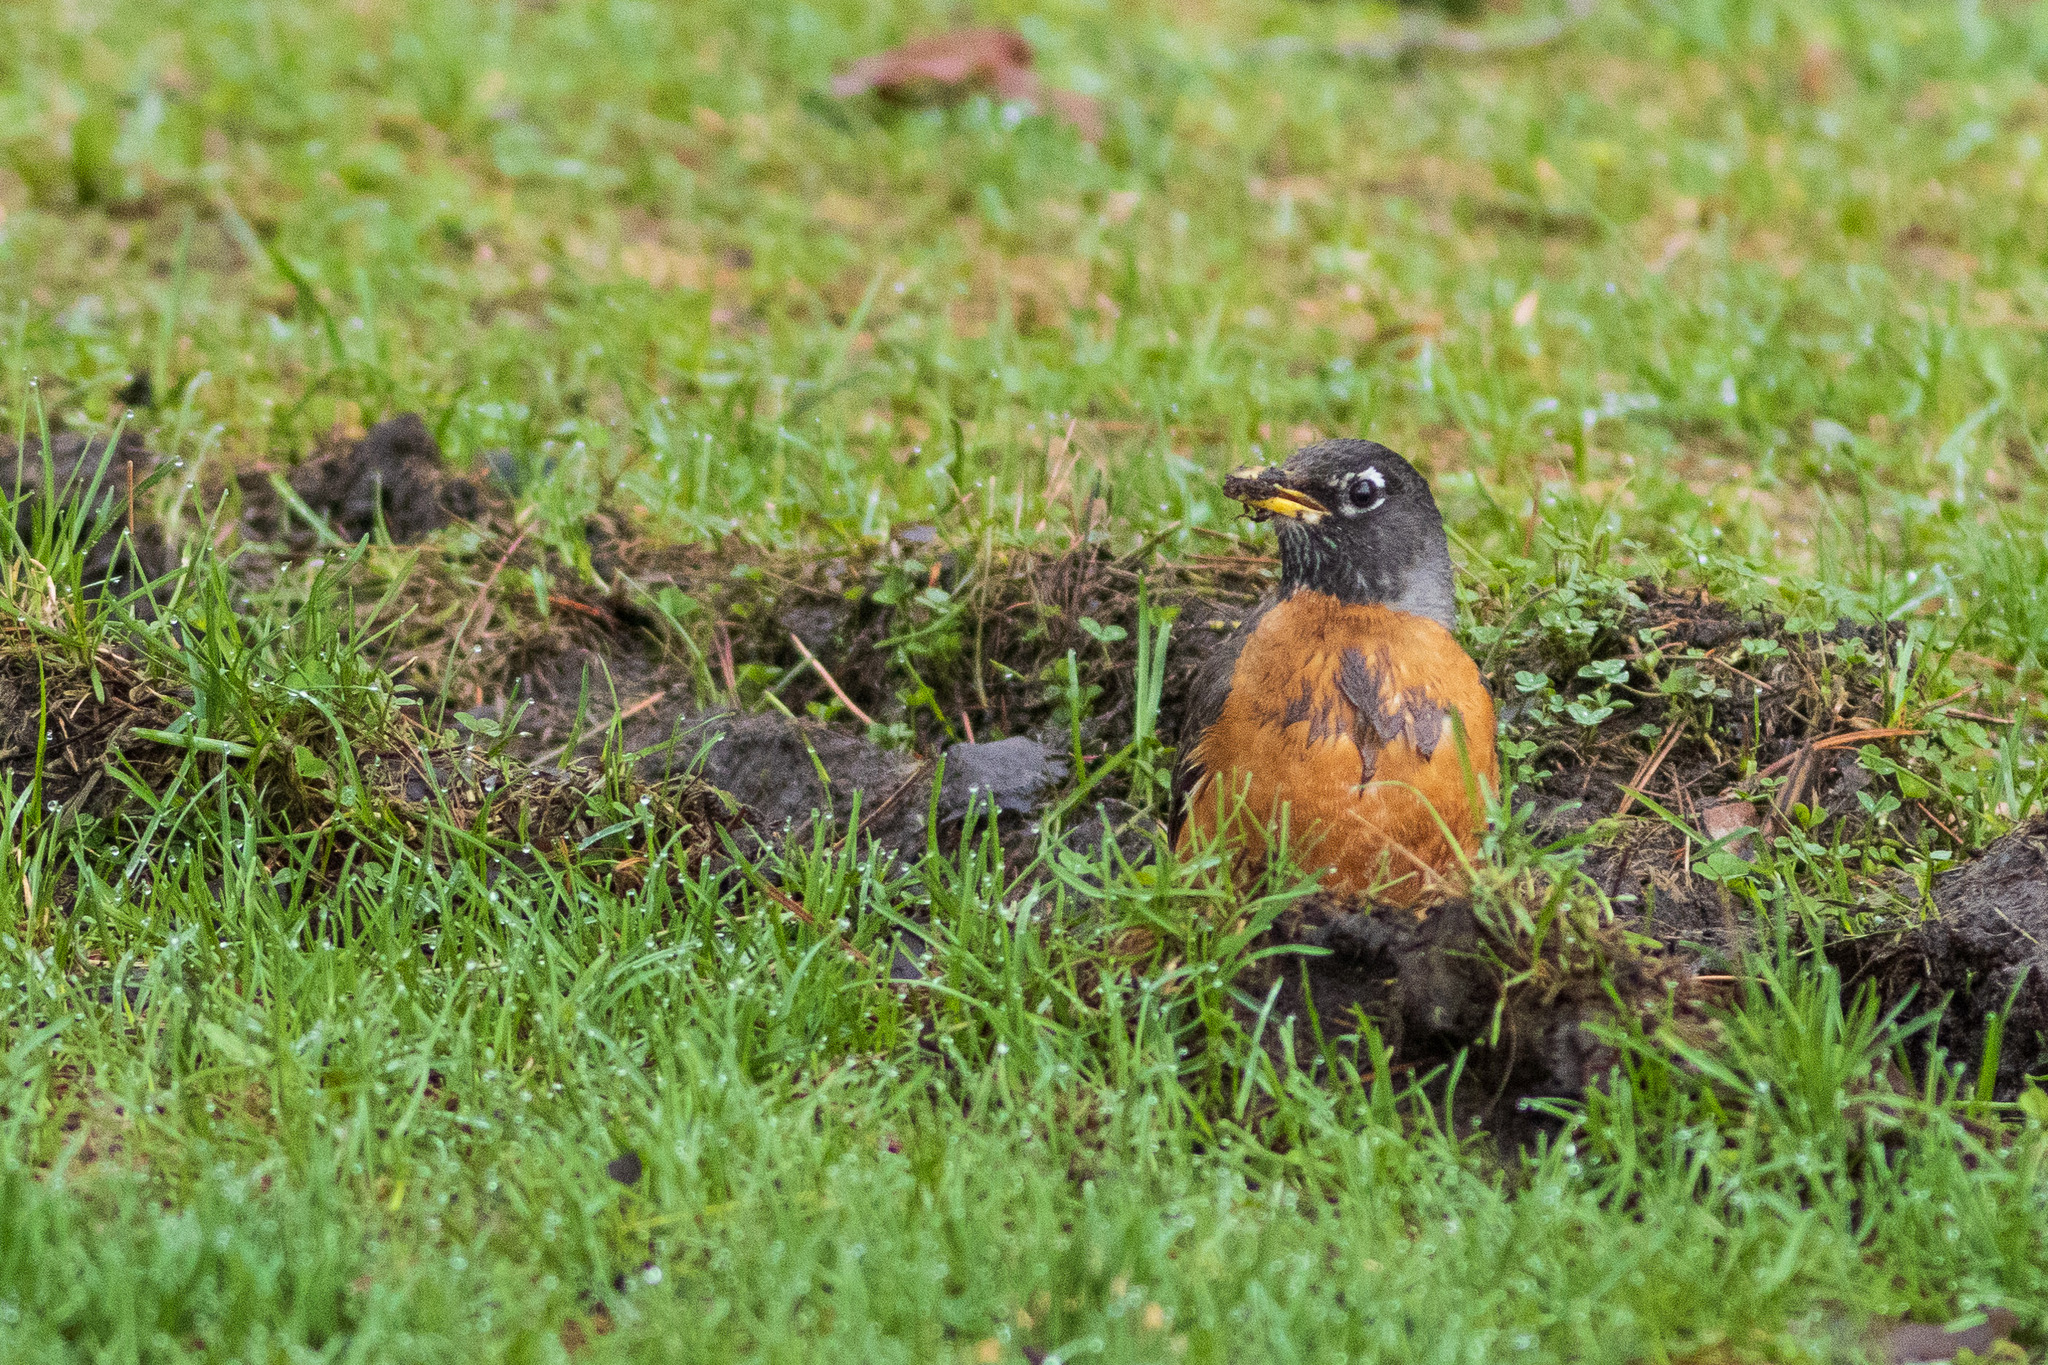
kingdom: Animalia
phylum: Chordata
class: Aves
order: Passeriformes
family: Turdidae
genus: Turdus
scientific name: Turdus migratorius
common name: American robin
